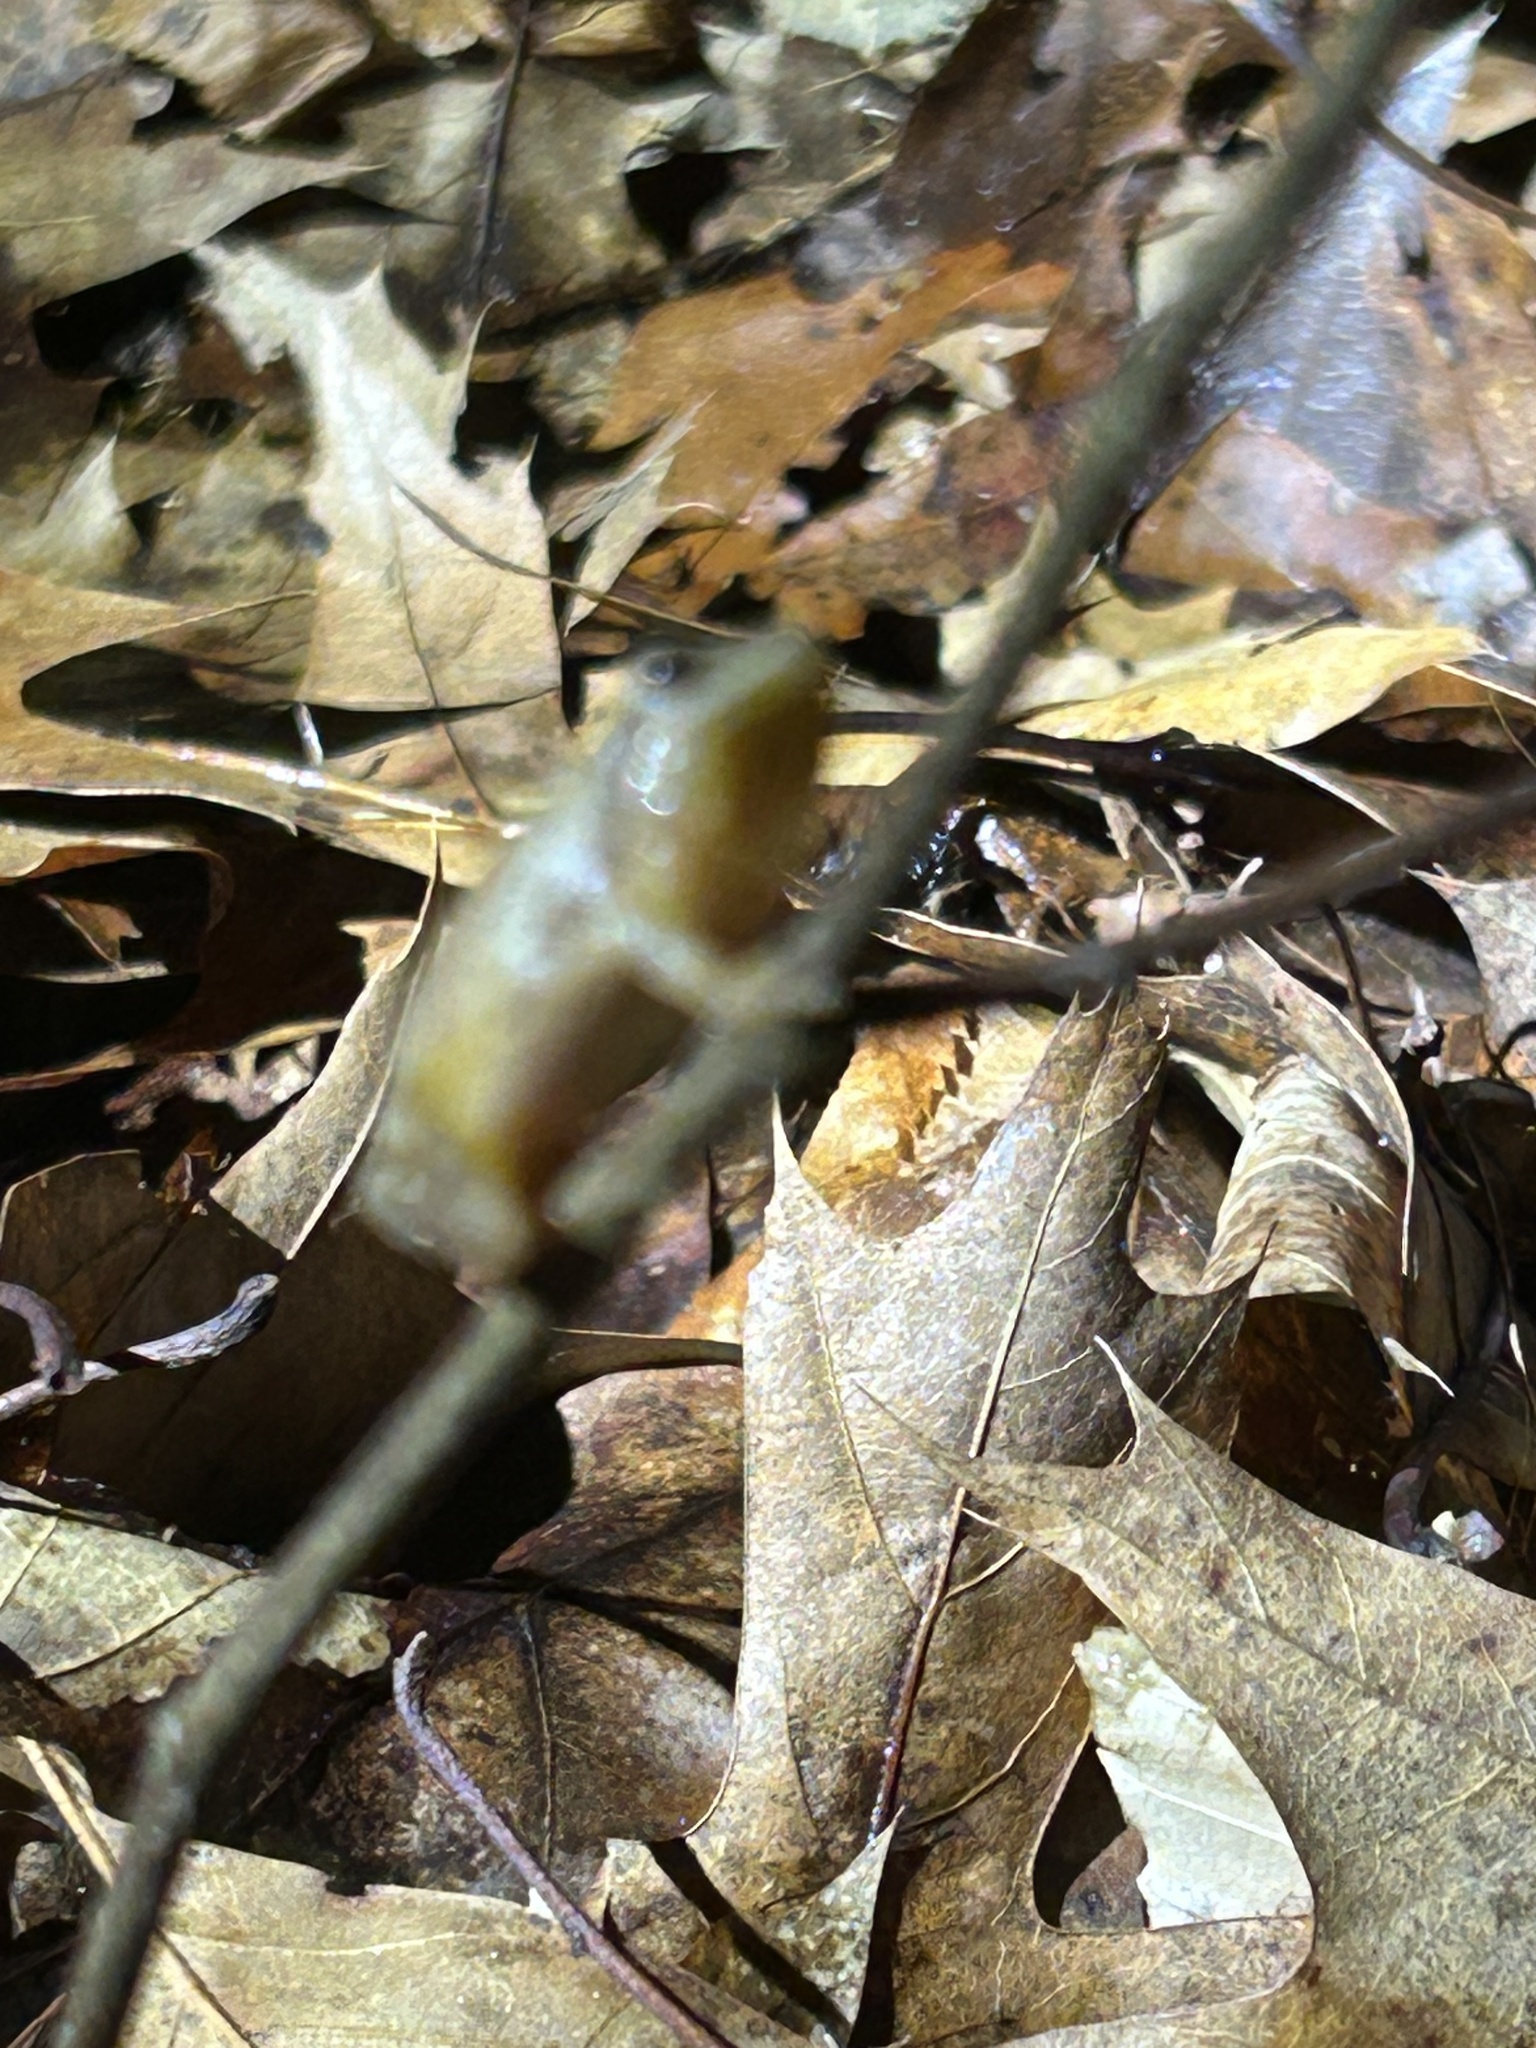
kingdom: Animalia
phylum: Chordata
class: Amphibia
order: Anura
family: Hylidae
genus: Pseudacris
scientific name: Pseudacris crucifer
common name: Spring peeper
